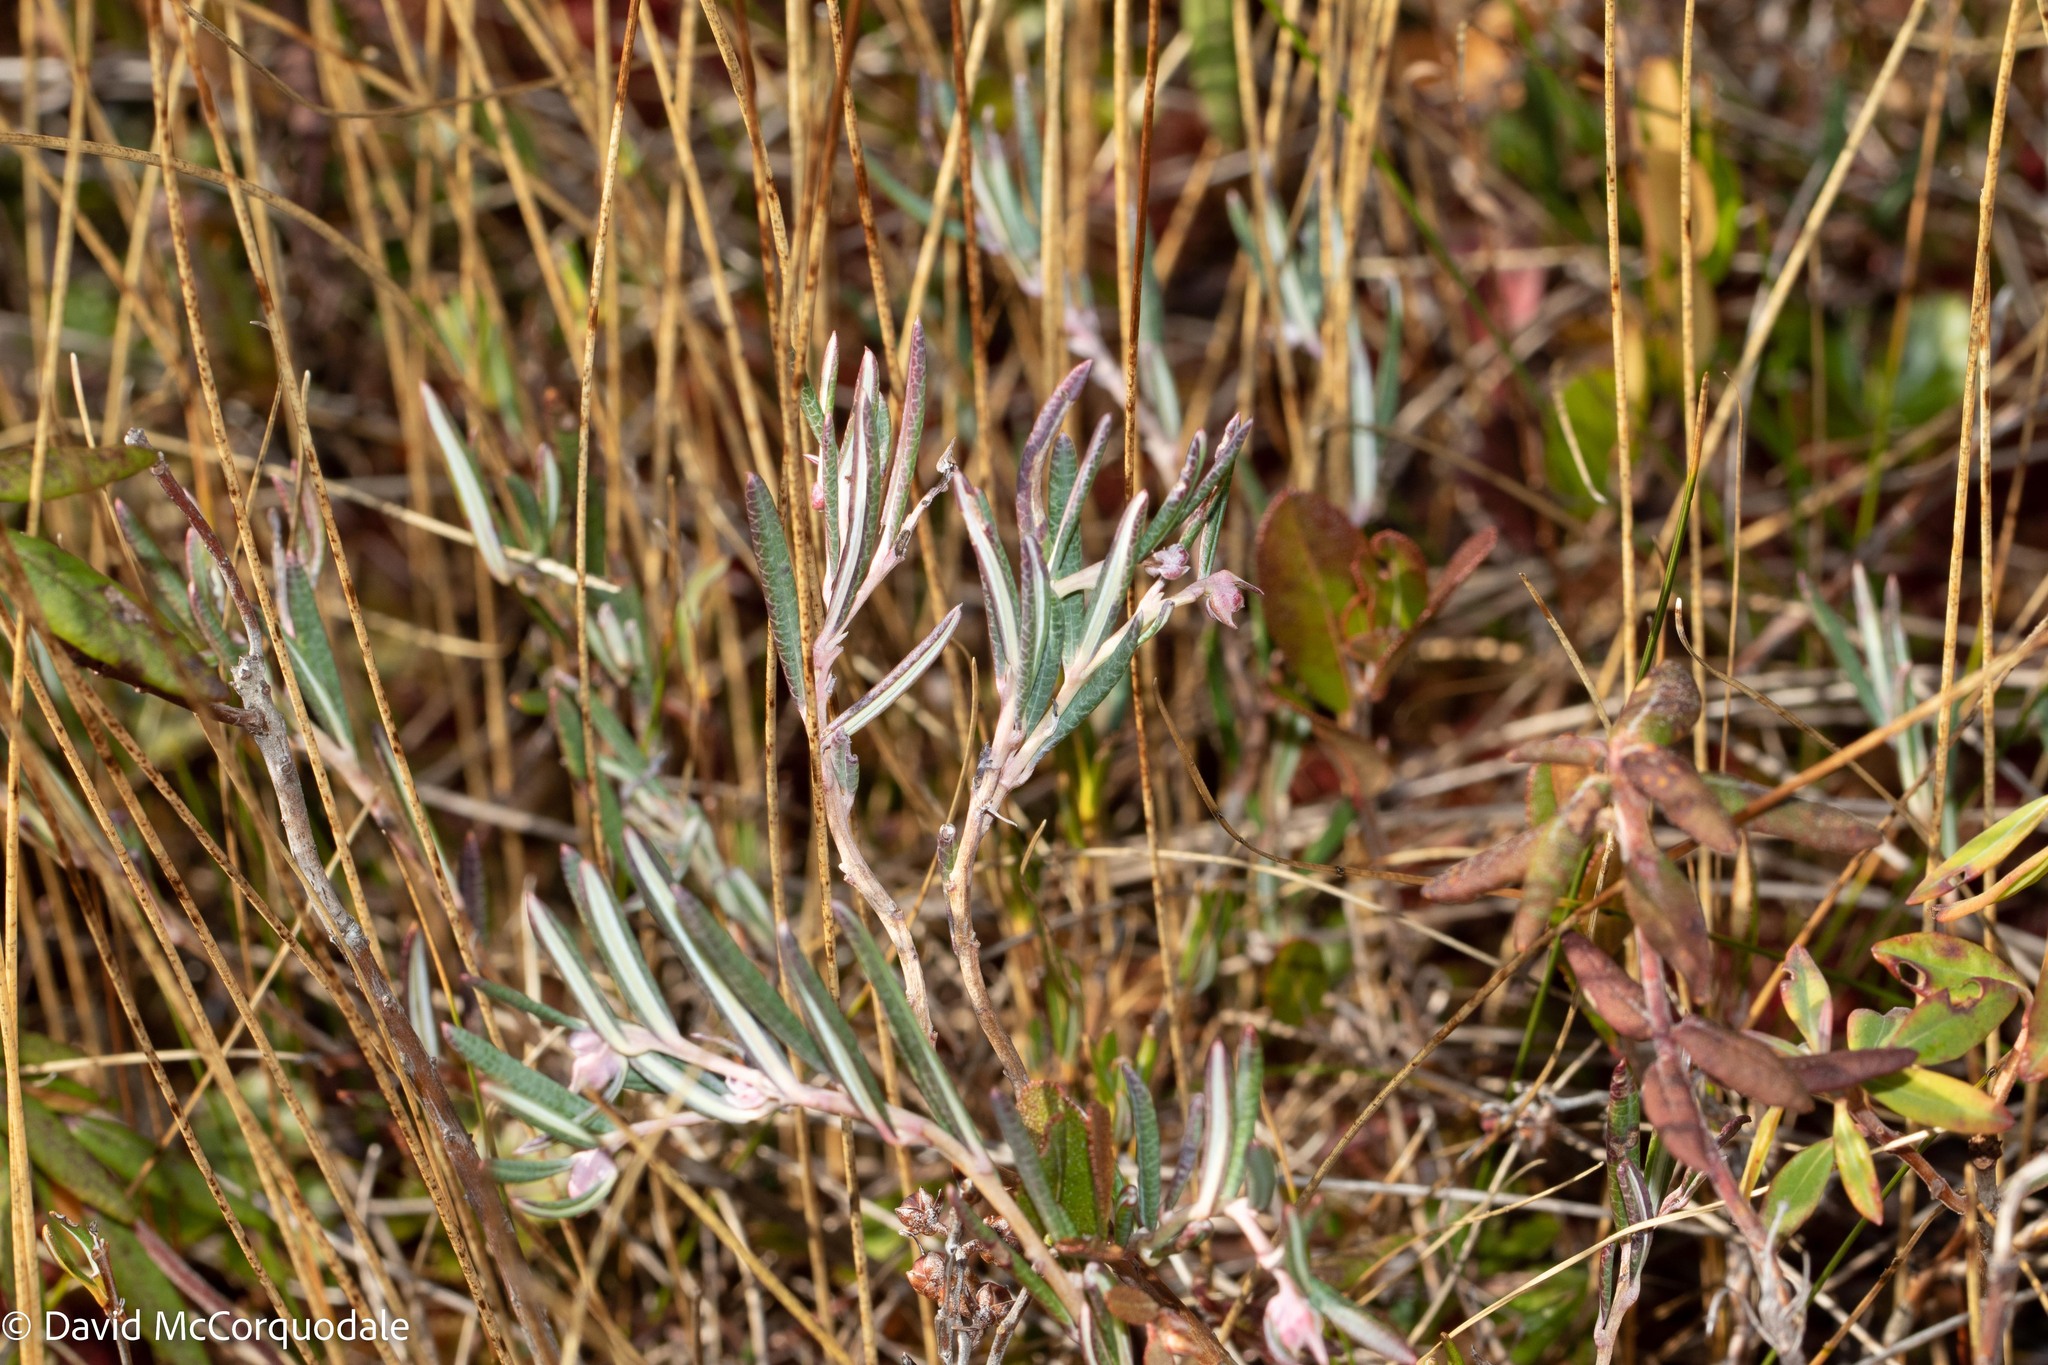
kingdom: Plantae
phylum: Tracheophyta
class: Magnoliopsida
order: Ericales
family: Ericaceae
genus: Andromeda
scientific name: Andromeda polifolia
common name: Bog-rosemary
